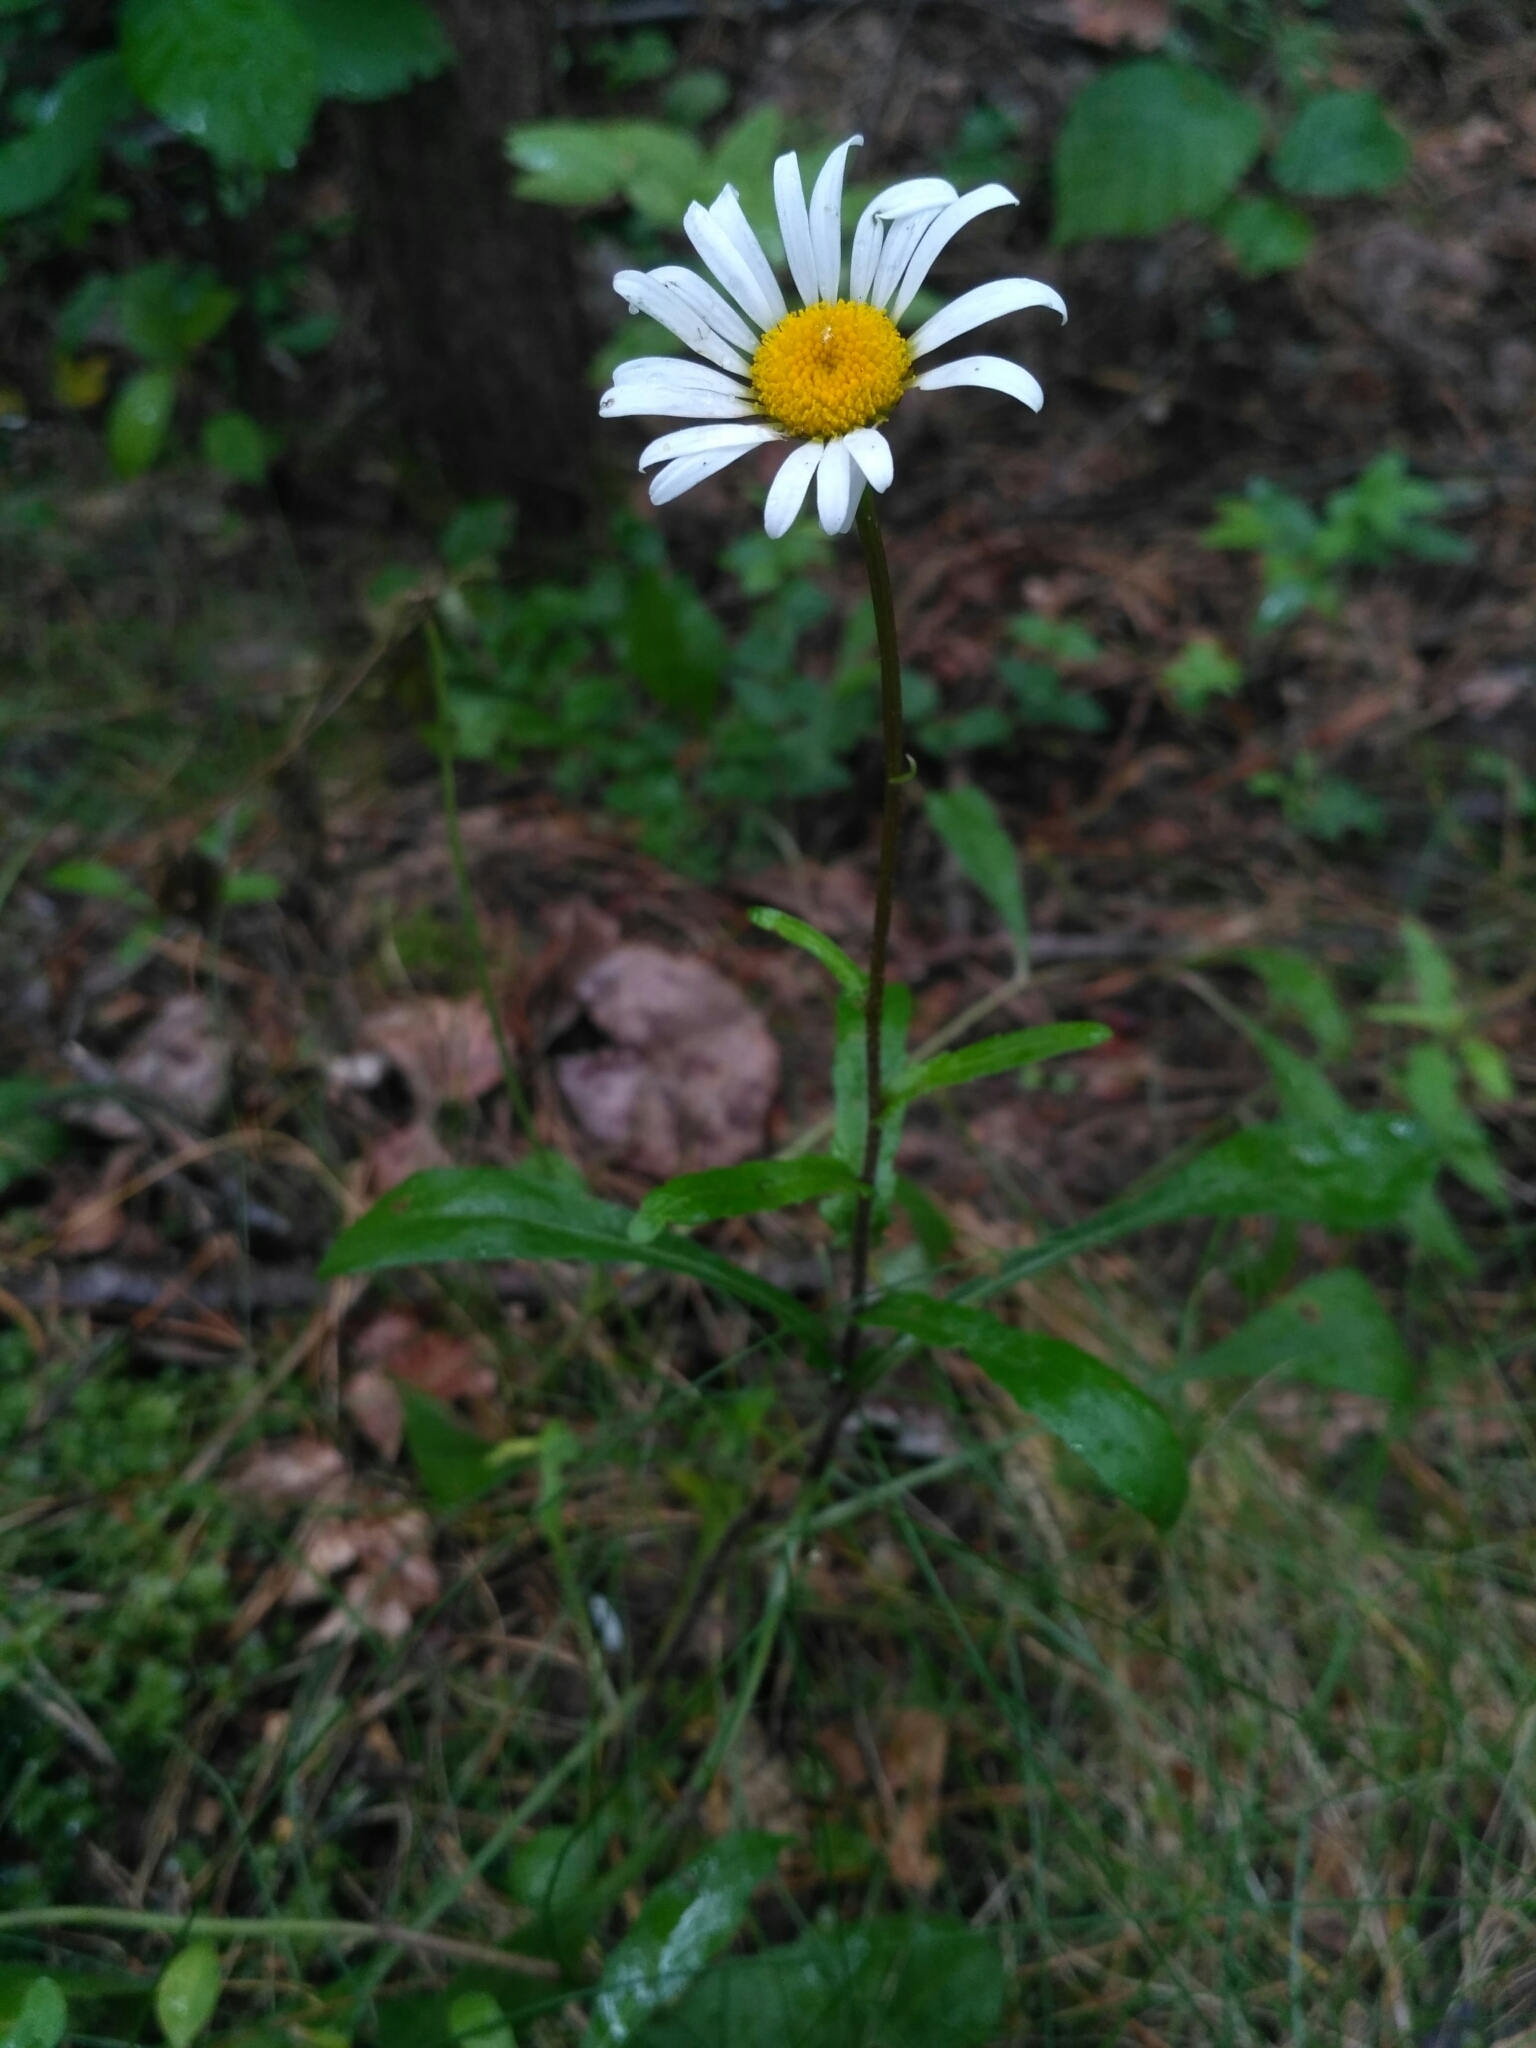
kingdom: Plantae
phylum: Tracheophyta
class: Magnoliopsida
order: Asterales
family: Asteraceae
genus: Leucanthemum
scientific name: Leucanthemum vulgare
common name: Oxeye daisy
